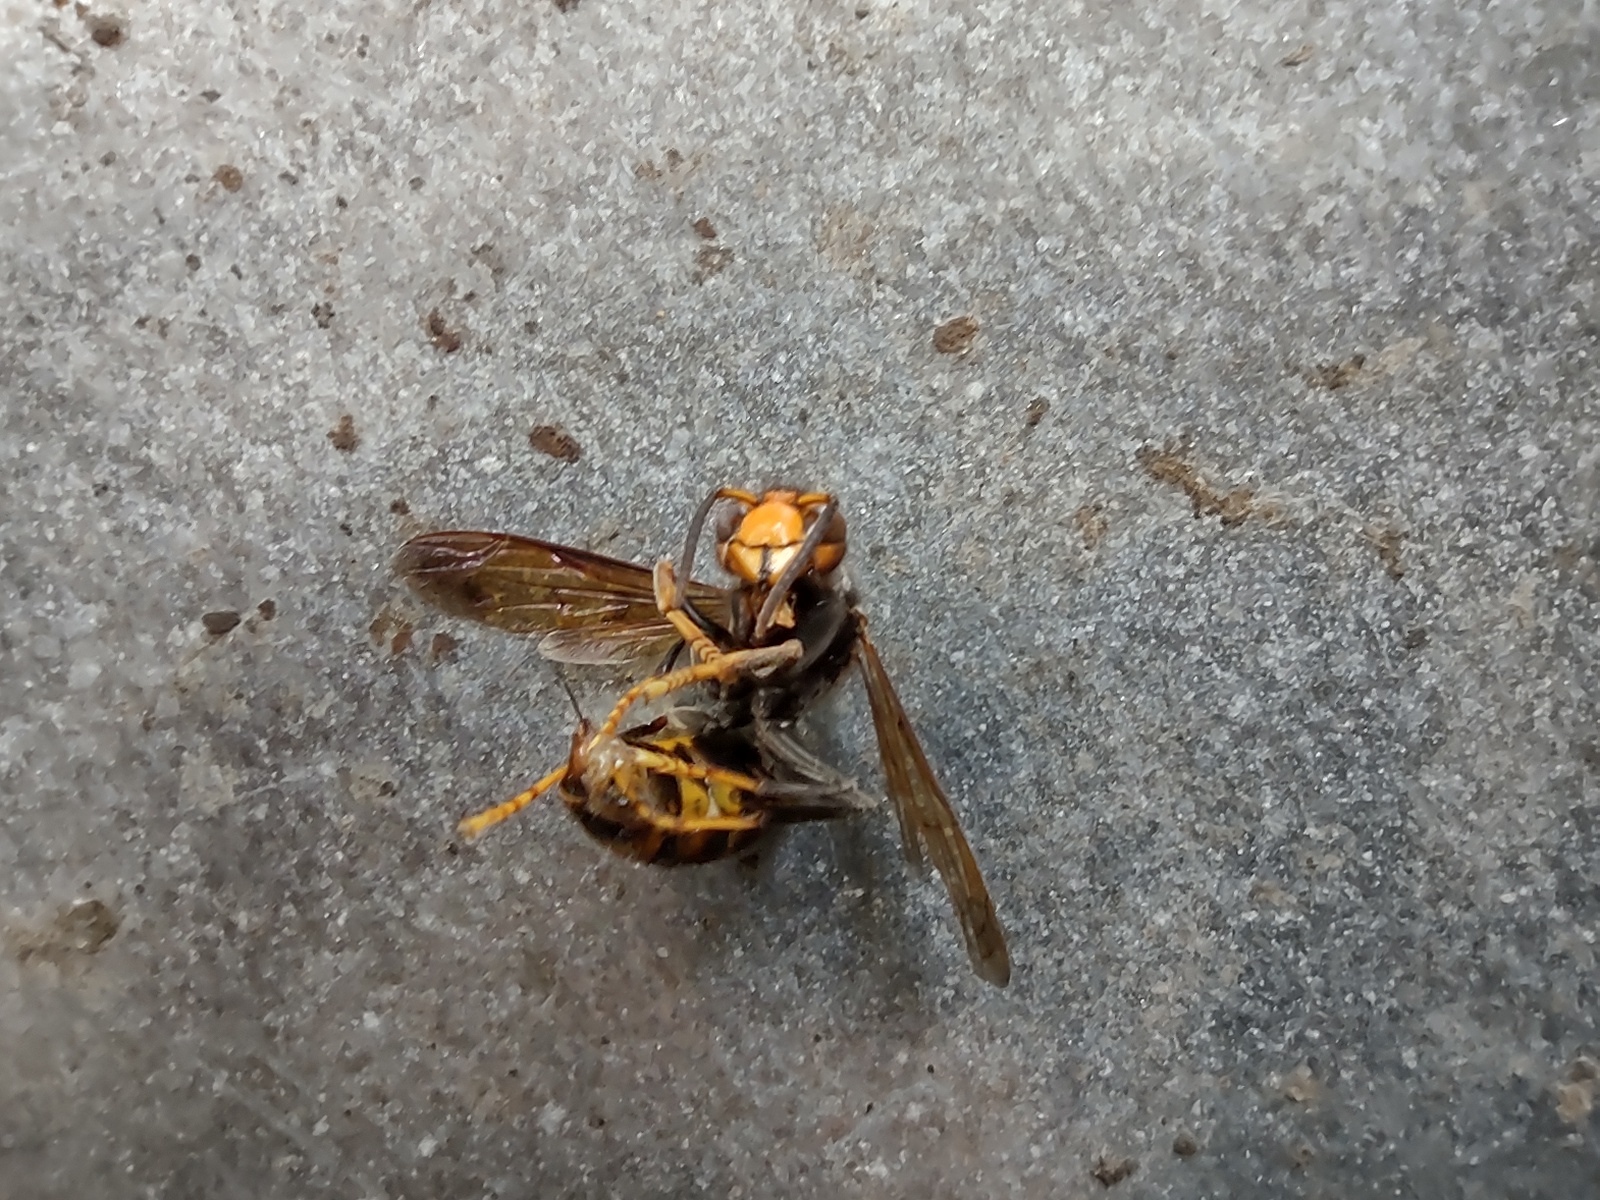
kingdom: Animalia
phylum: Arthropoda
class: Insecta
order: Hymenoptera
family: Vespidae
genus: Vespa
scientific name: Vespa velutina
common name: Asian hornet
